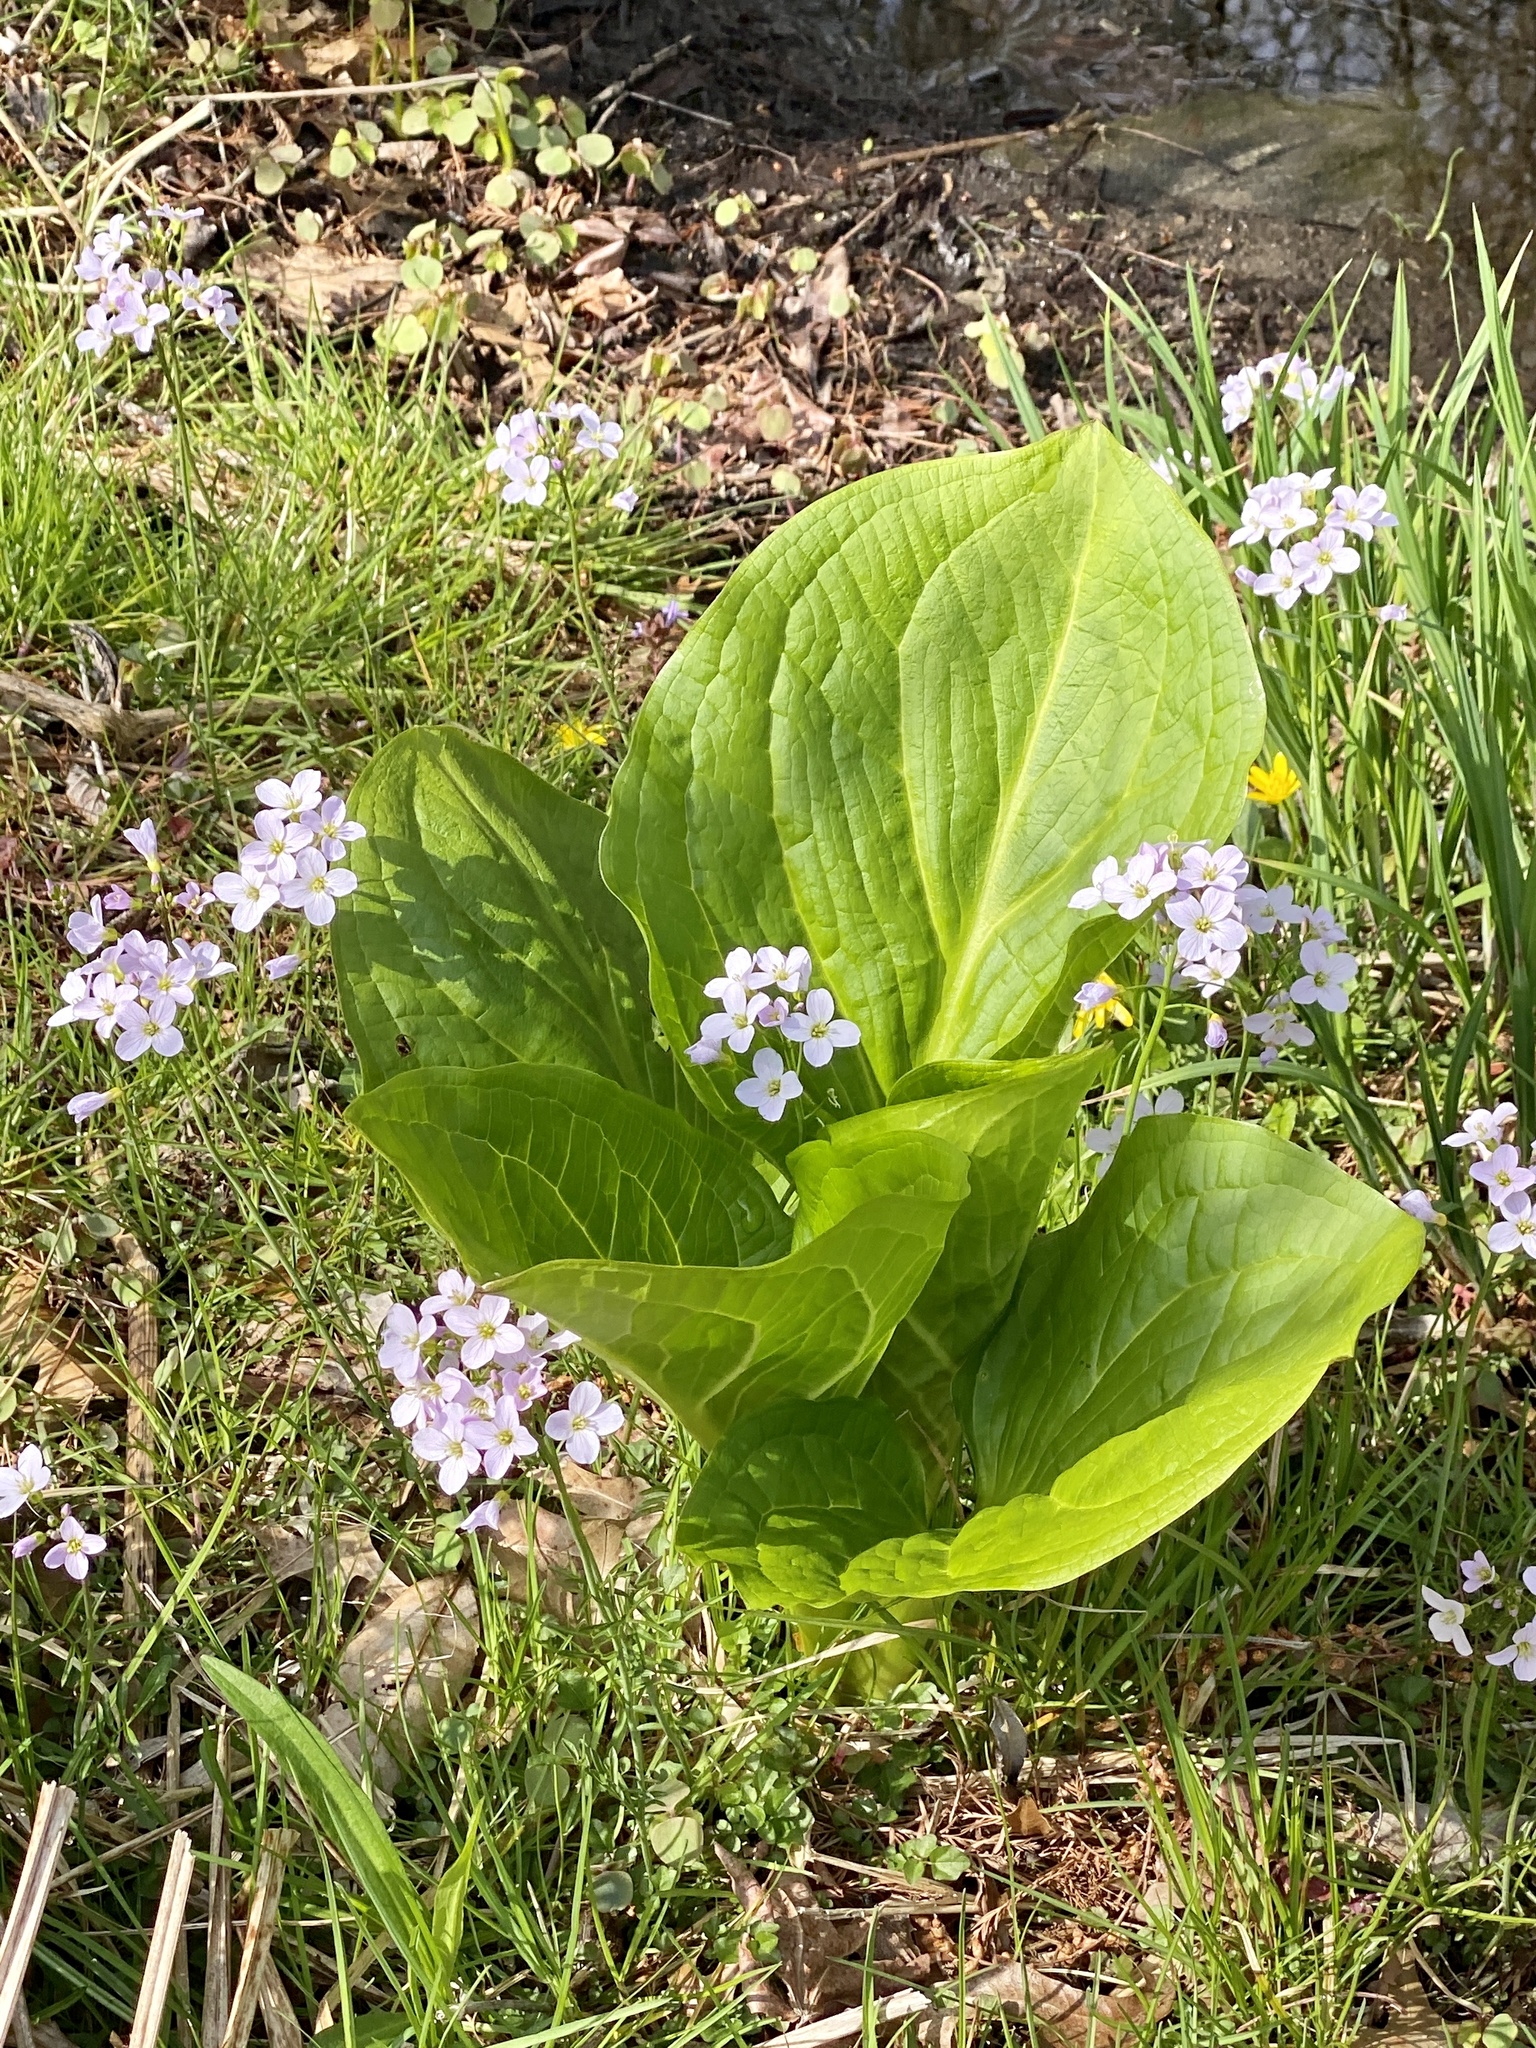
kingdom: Plantae
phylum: Tracheophyta
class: Magnoliopsida
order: Brassicales
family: Brassicaceae
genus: Cardamine
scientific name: Cardamine pratensis
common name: Cuckoo flower
